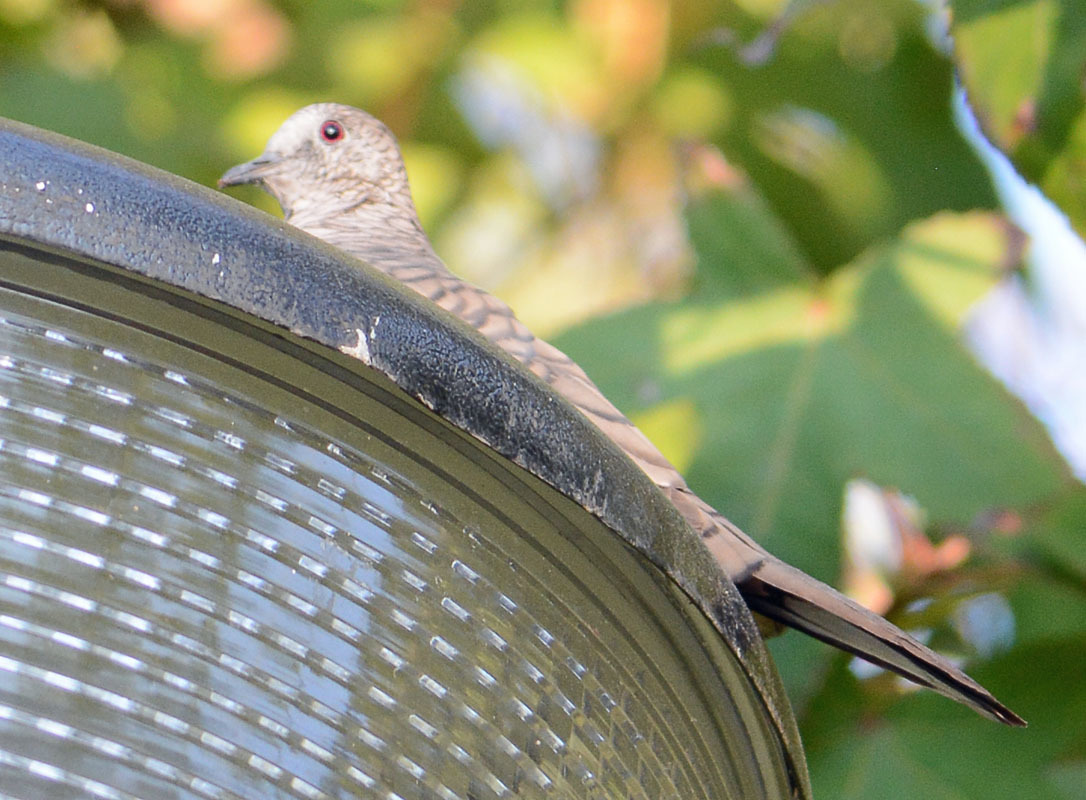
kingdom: Animalia
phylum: Chordata
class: Aves
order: Columbiformes
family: Columbidae
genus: Columbina
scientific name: Columbina inca
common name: Inca dove
